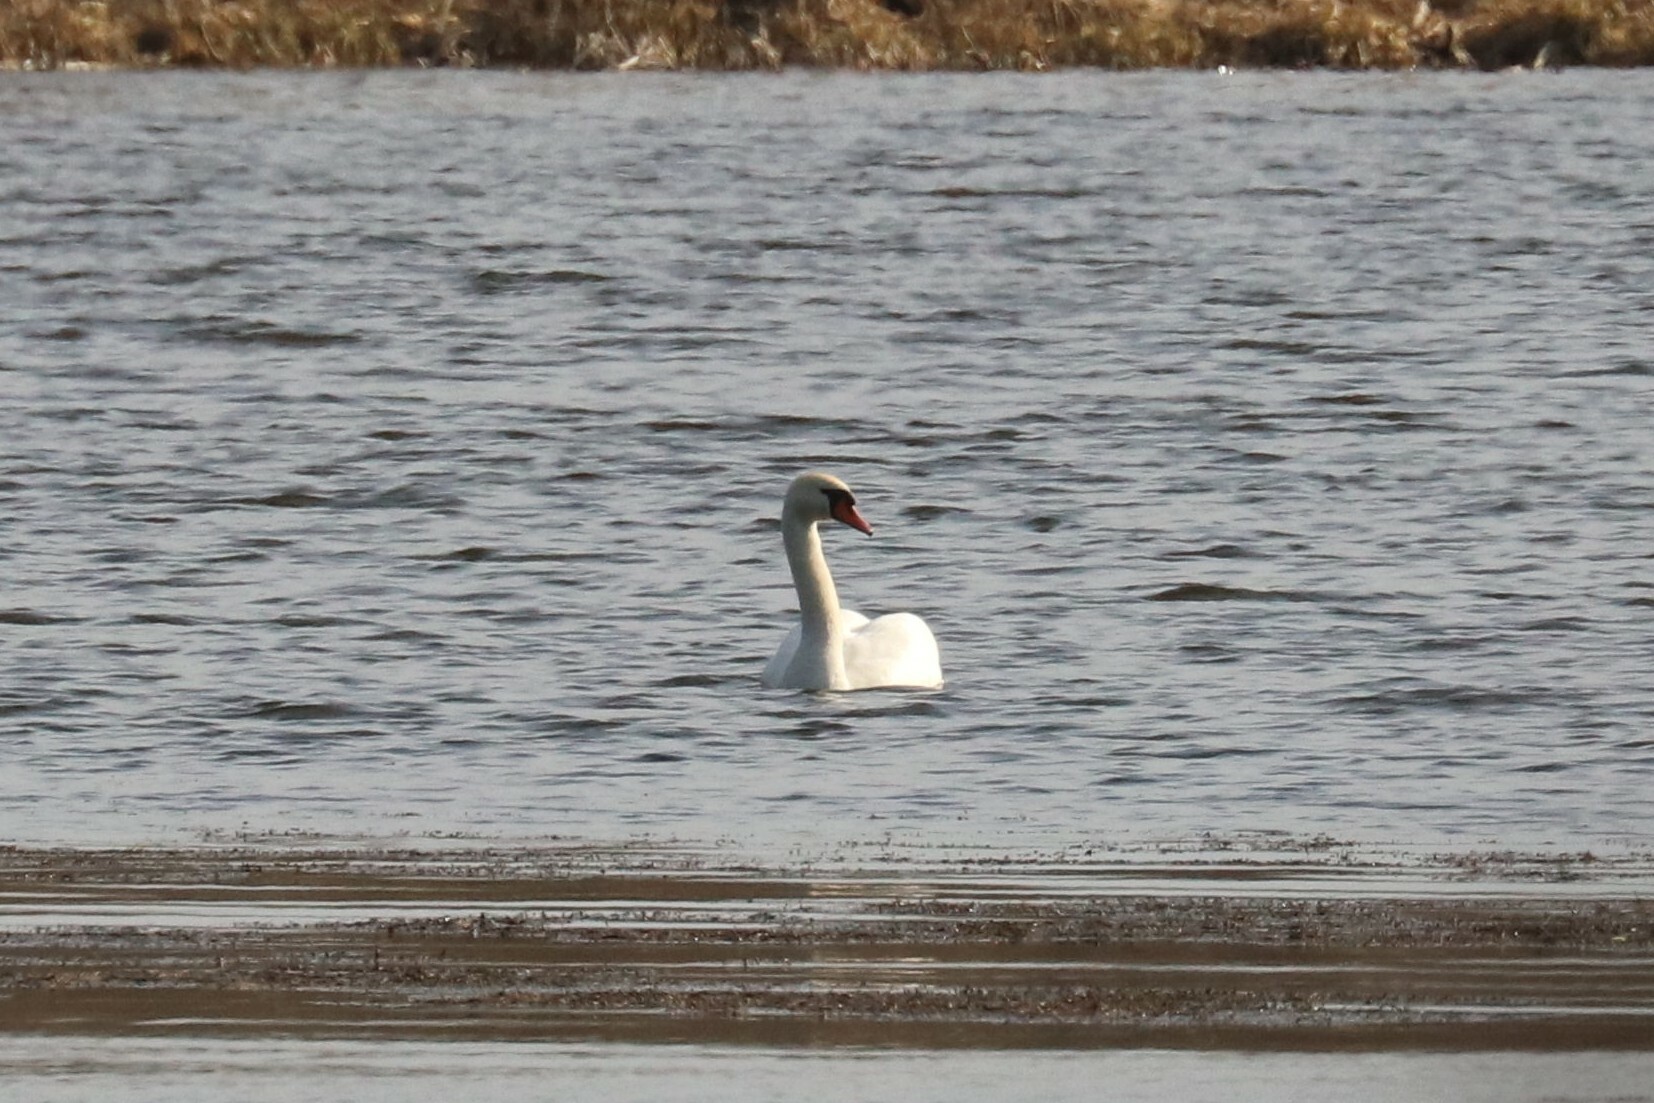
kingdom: Animalia
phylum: Chordata
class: Aves
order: Anseriformes
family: Anatidae
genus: Cygnus
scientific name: Cygnus olor
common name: Mute swan
